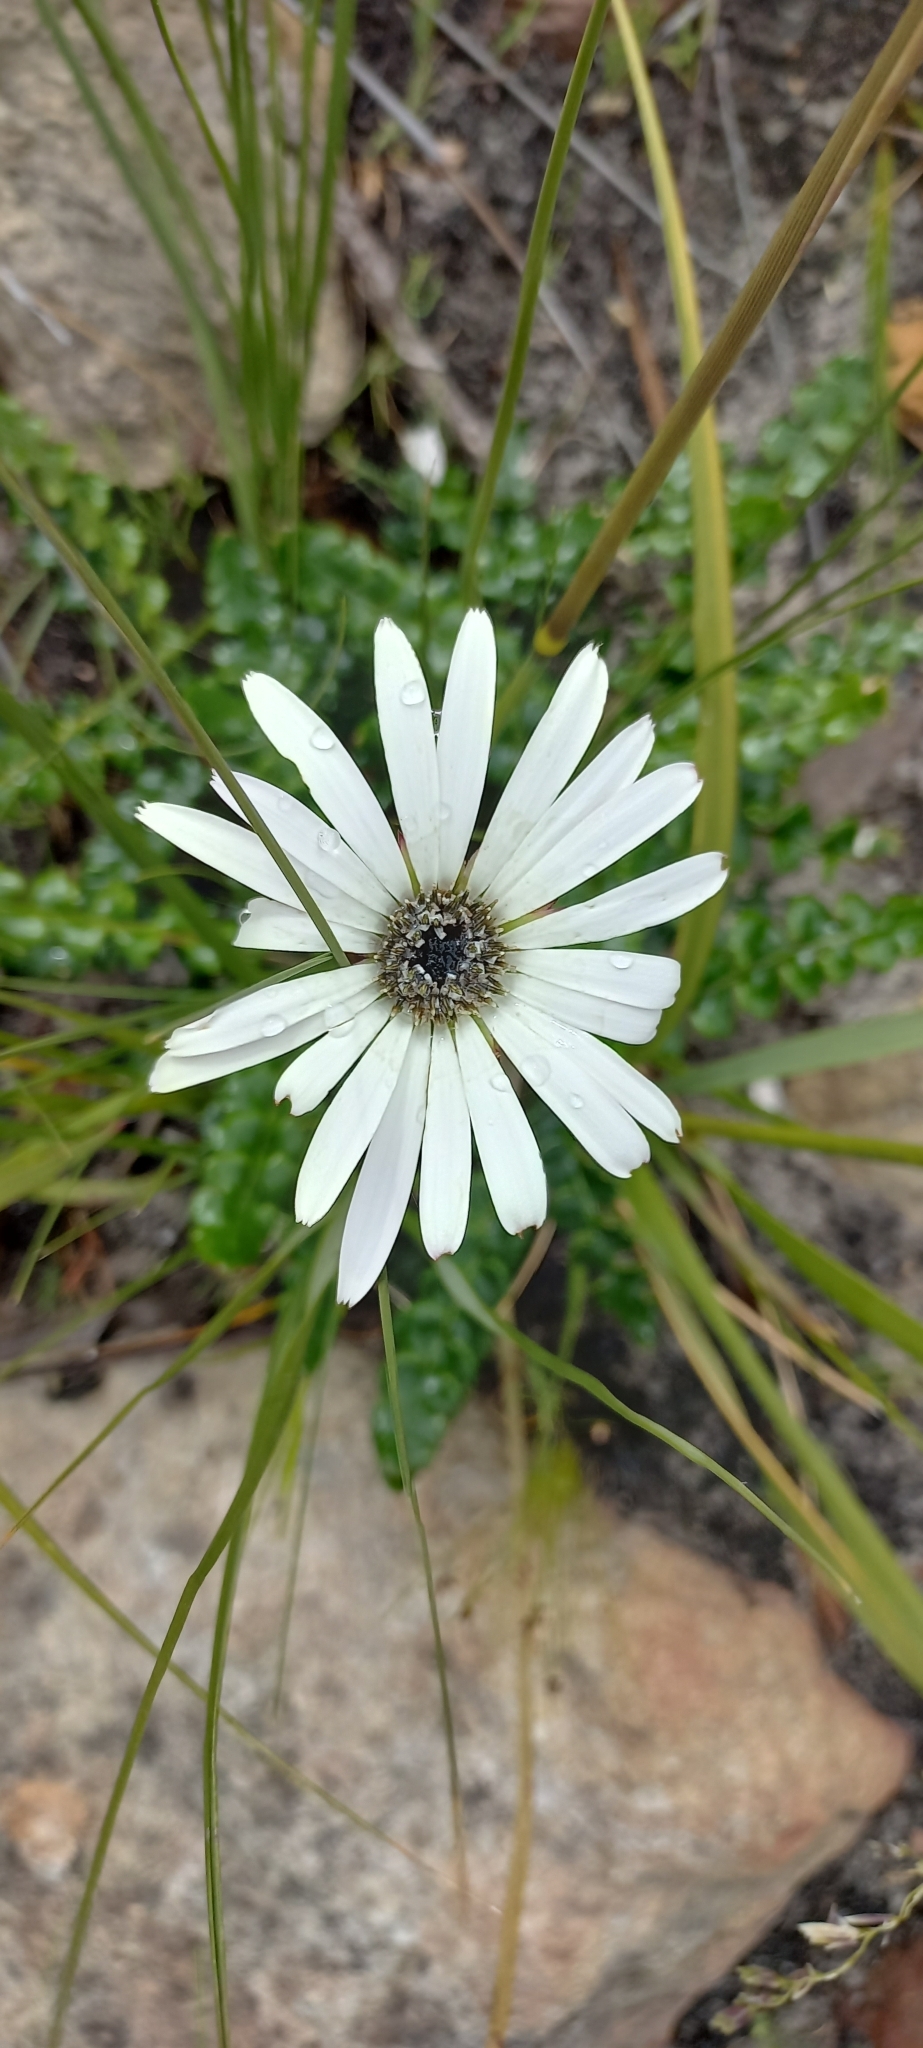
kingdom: Plantae
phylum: Tracheophyta
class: Magnoliopsida
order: Asterales
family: Asteraceae
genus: Gerbera
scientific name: Gerbera linnaei
